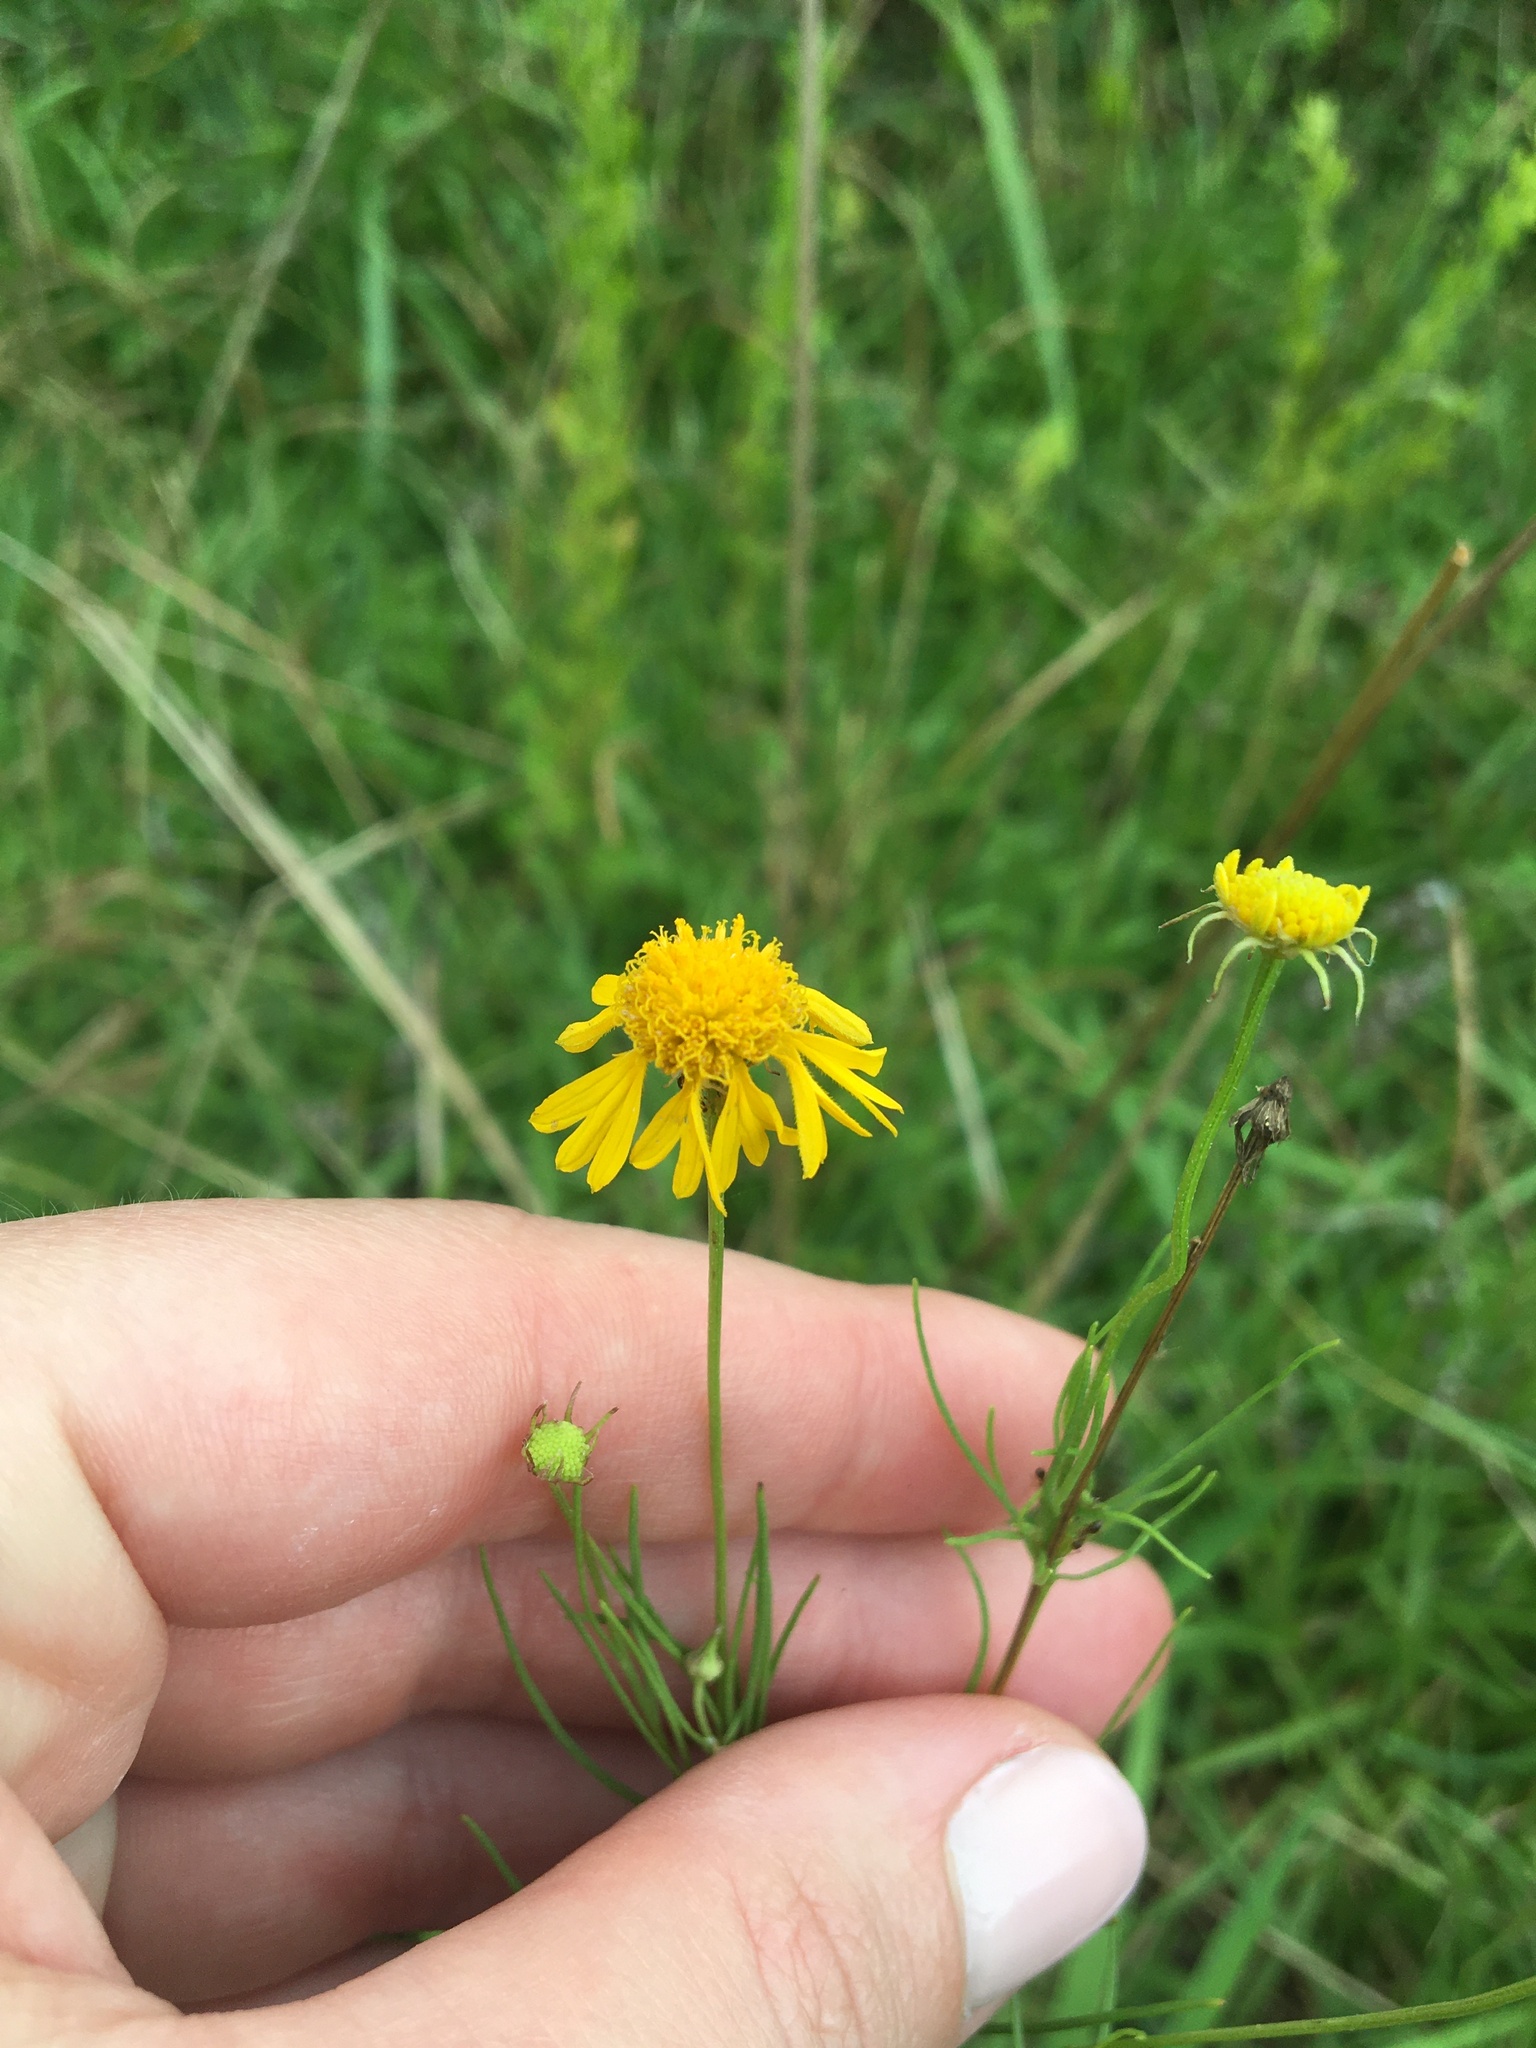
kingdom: Plantae
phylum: Tracheophyta
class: Magnoliopsida
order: Asterales
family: Asteraceae
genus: Helenium
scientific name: Helenium amarum
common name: Bitter sneezeweed
